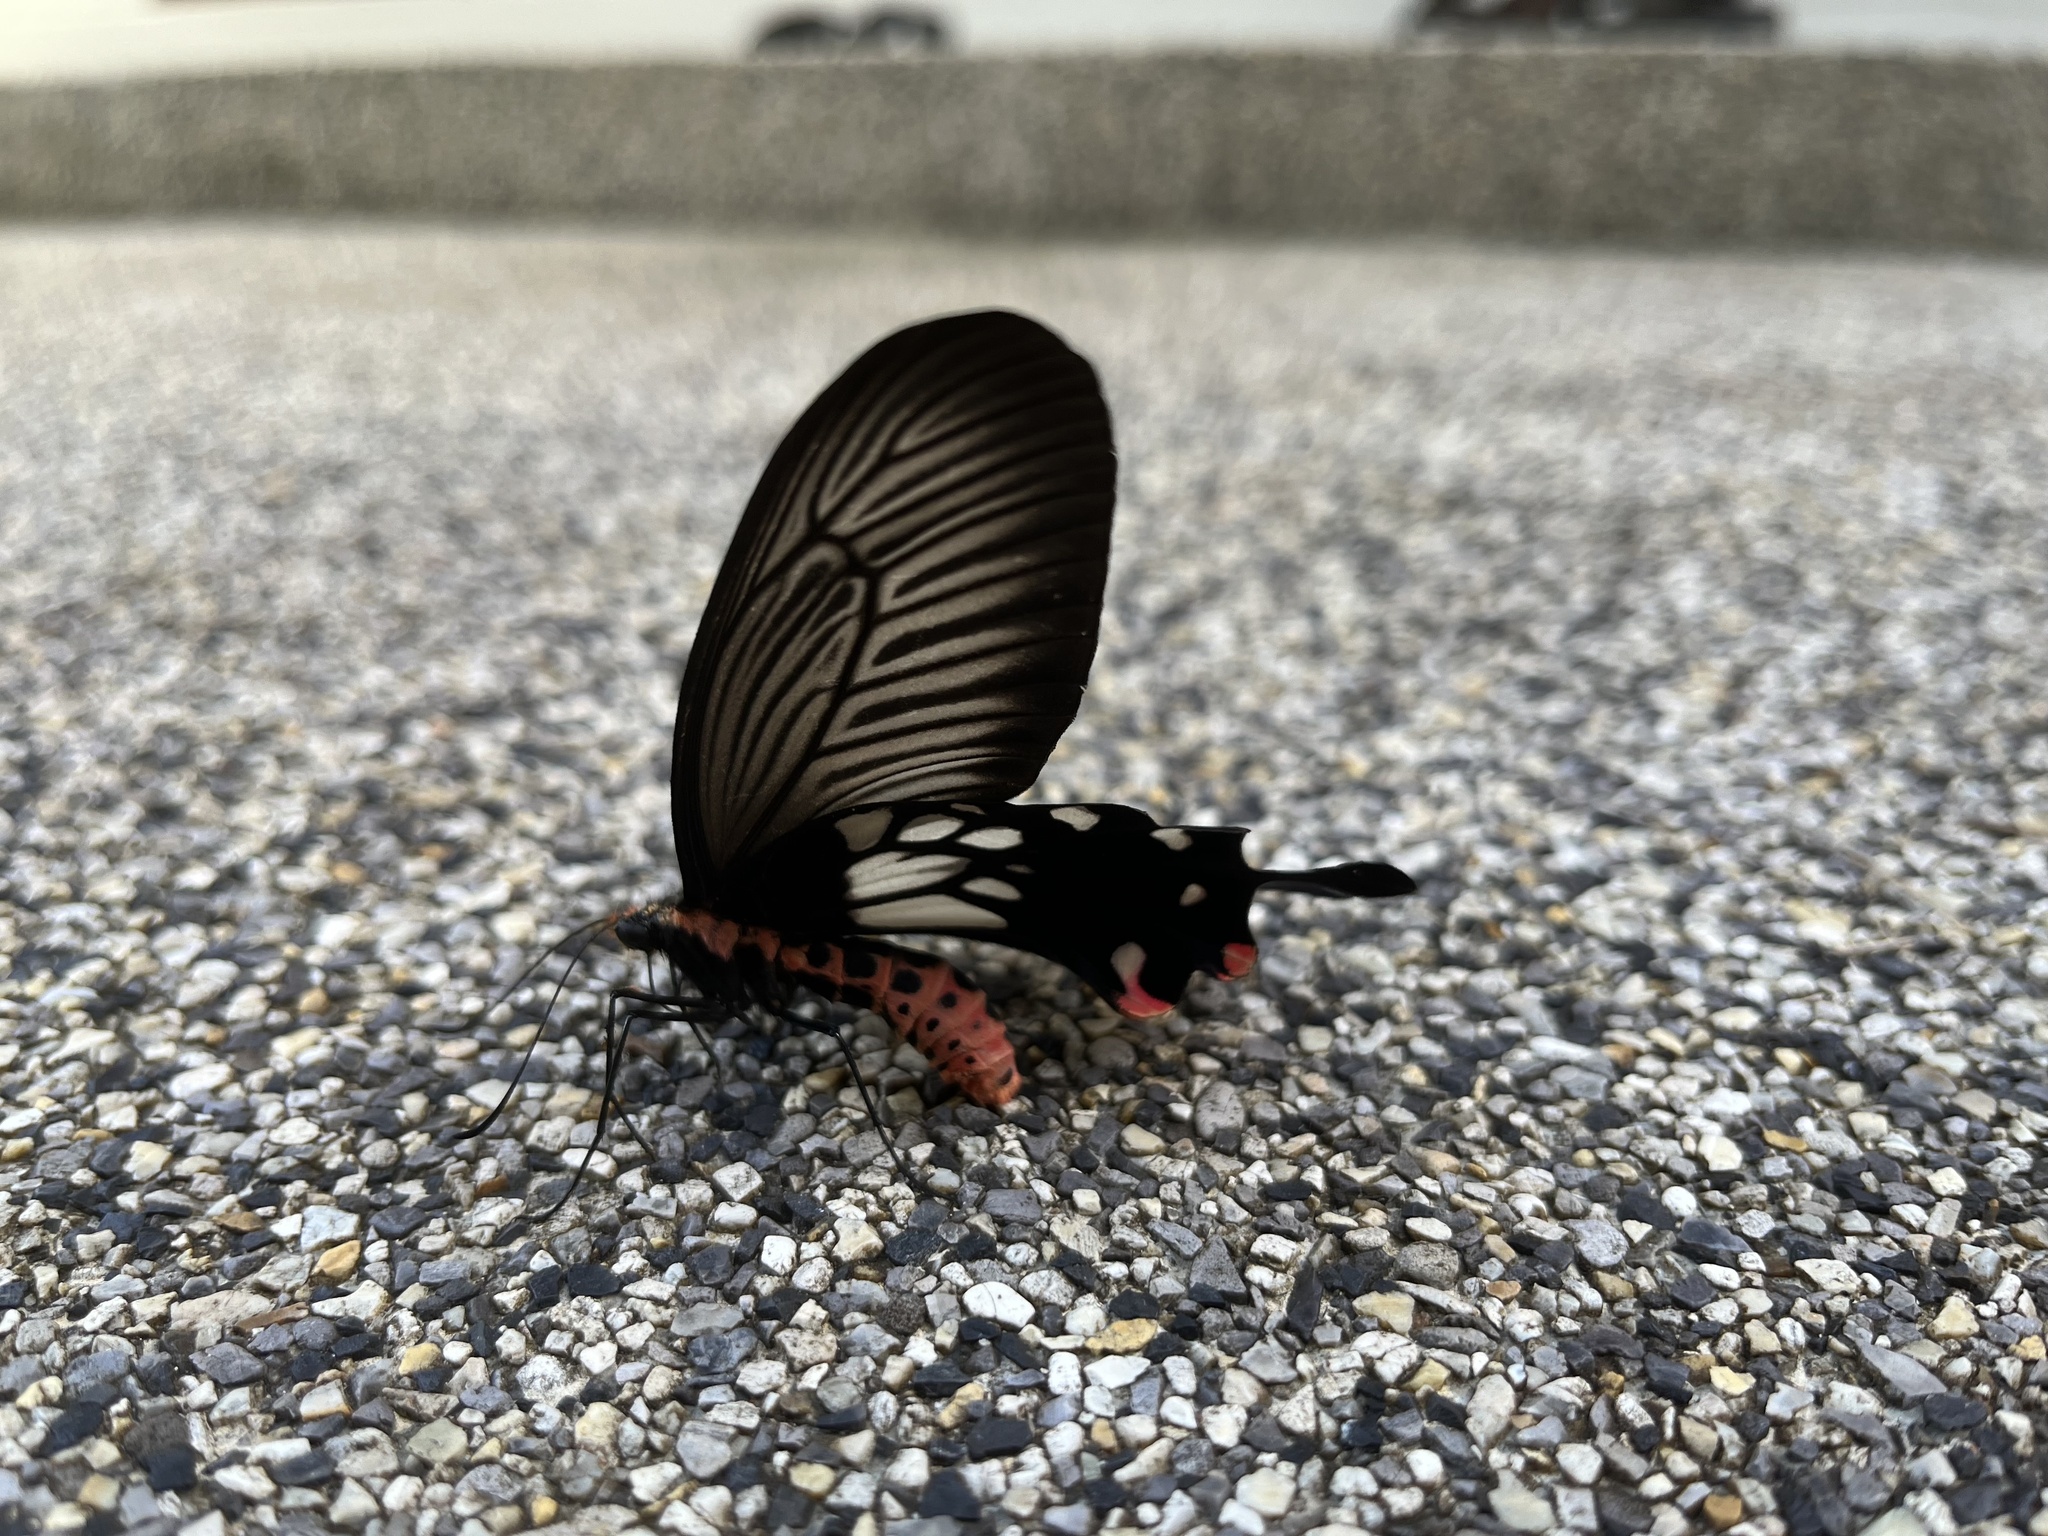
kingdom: Animalia
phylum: Arthropoda
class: Insecta
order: Lepidoptera
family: Papilionidae
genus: Losaria
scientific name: Losaria
